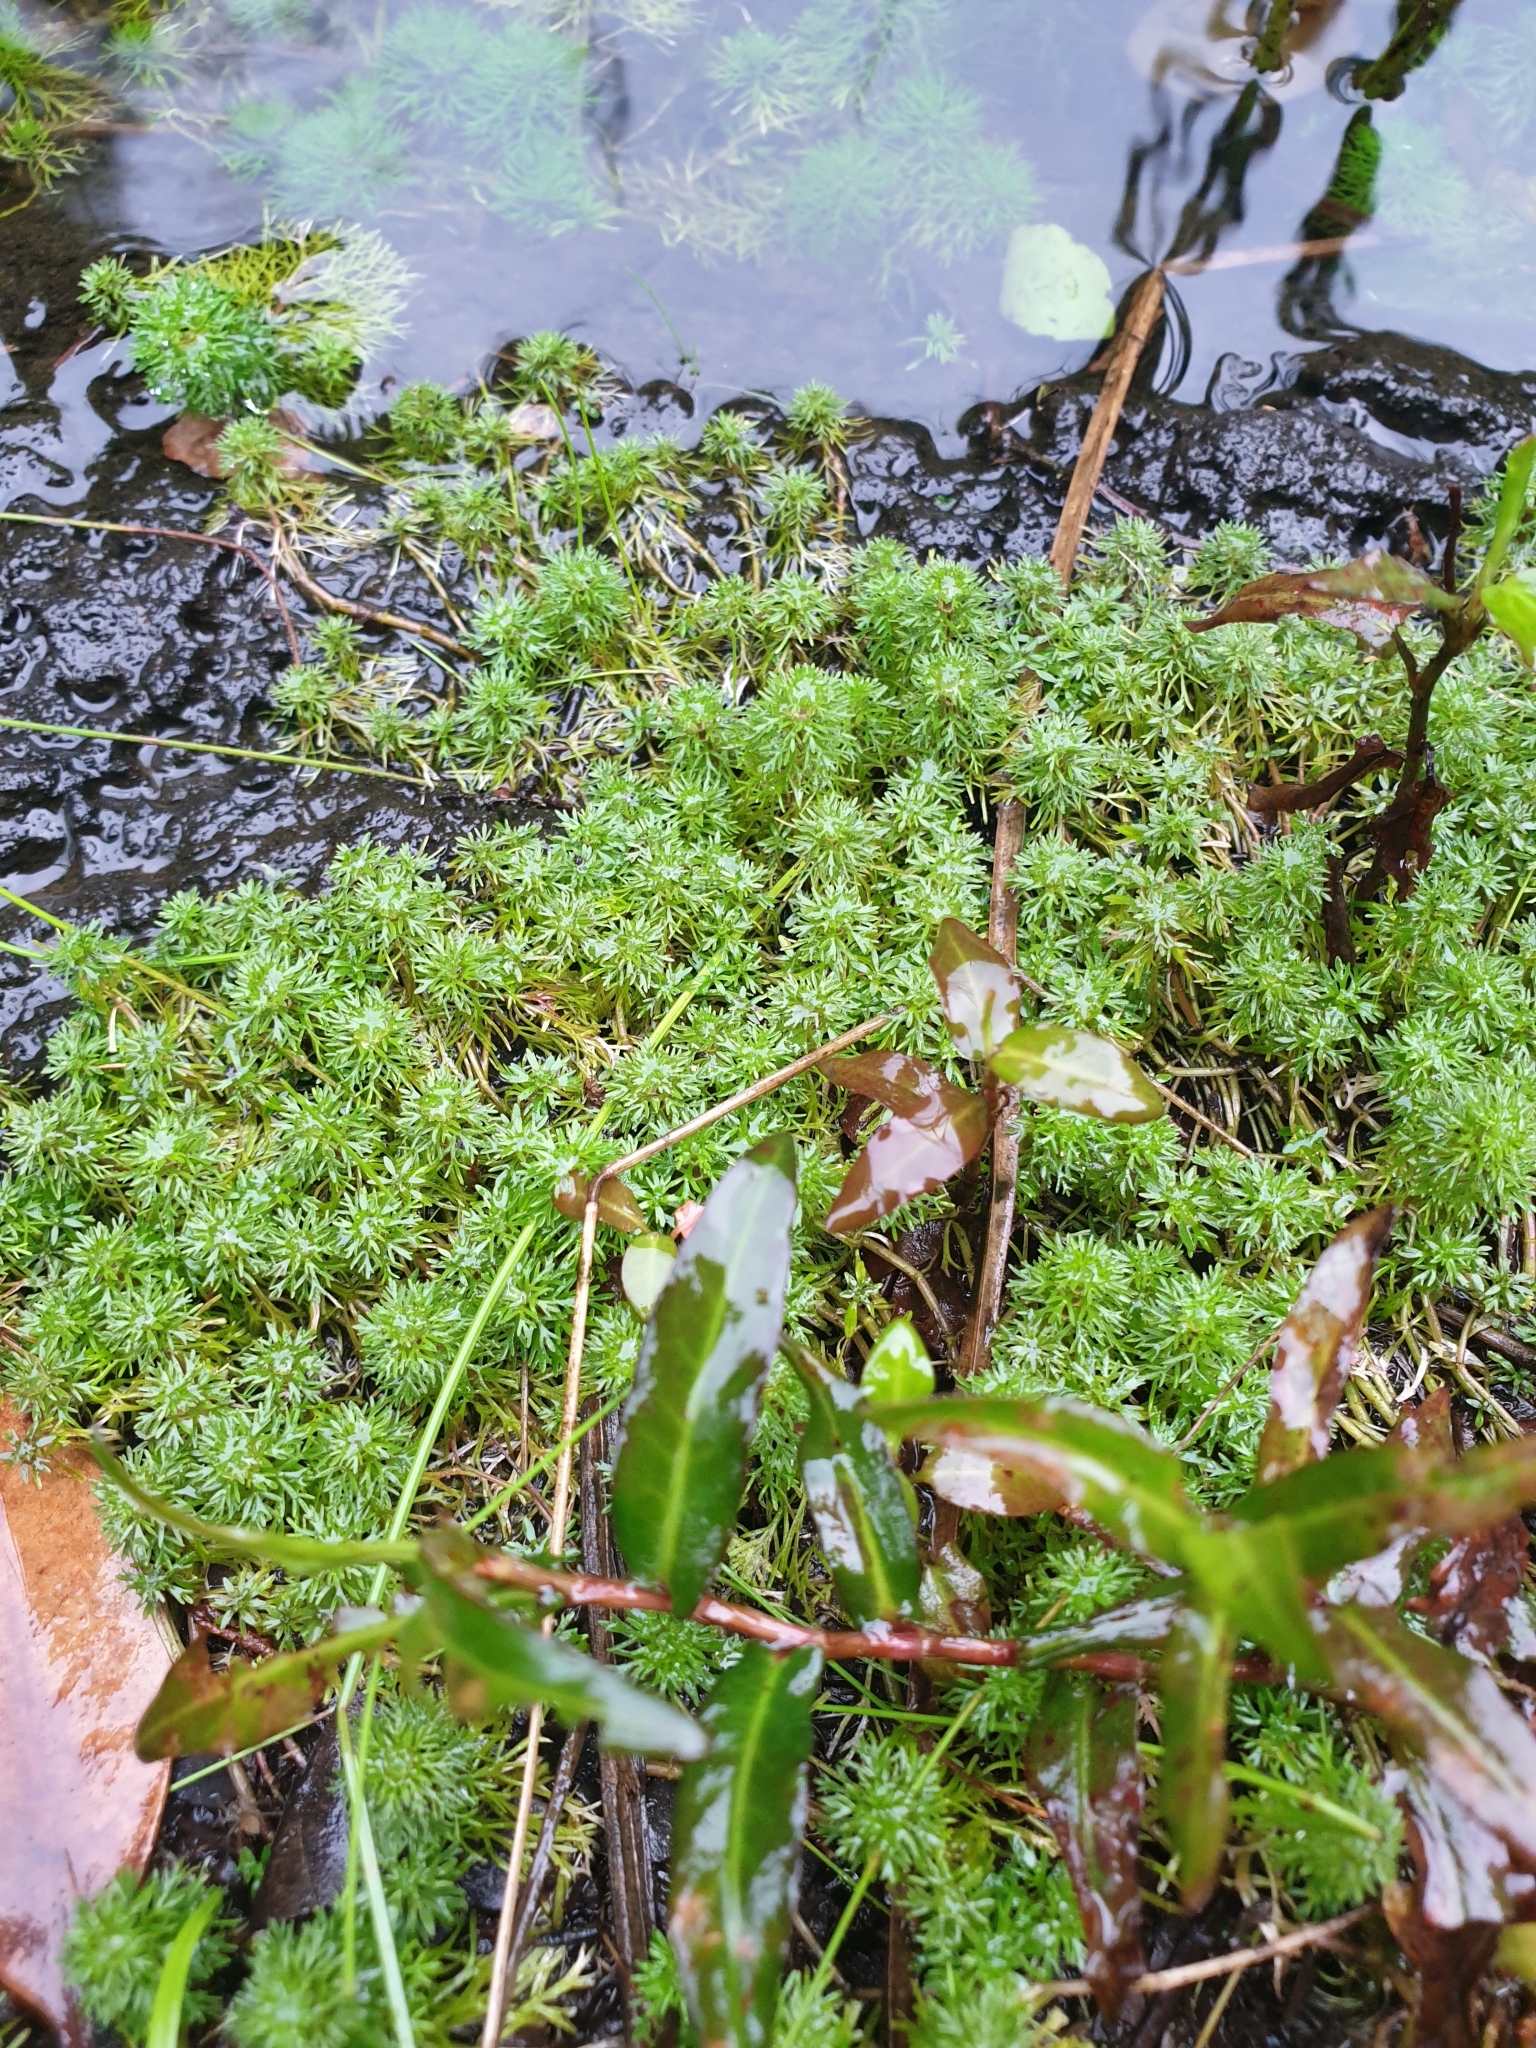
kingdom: Plantae
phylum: Tracheophyta
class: Magnoliopsida
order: Lamiales
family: Plantaginaceae
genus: Limnophila
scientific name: Limnophila sessiliflora
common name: Asian marshweed
